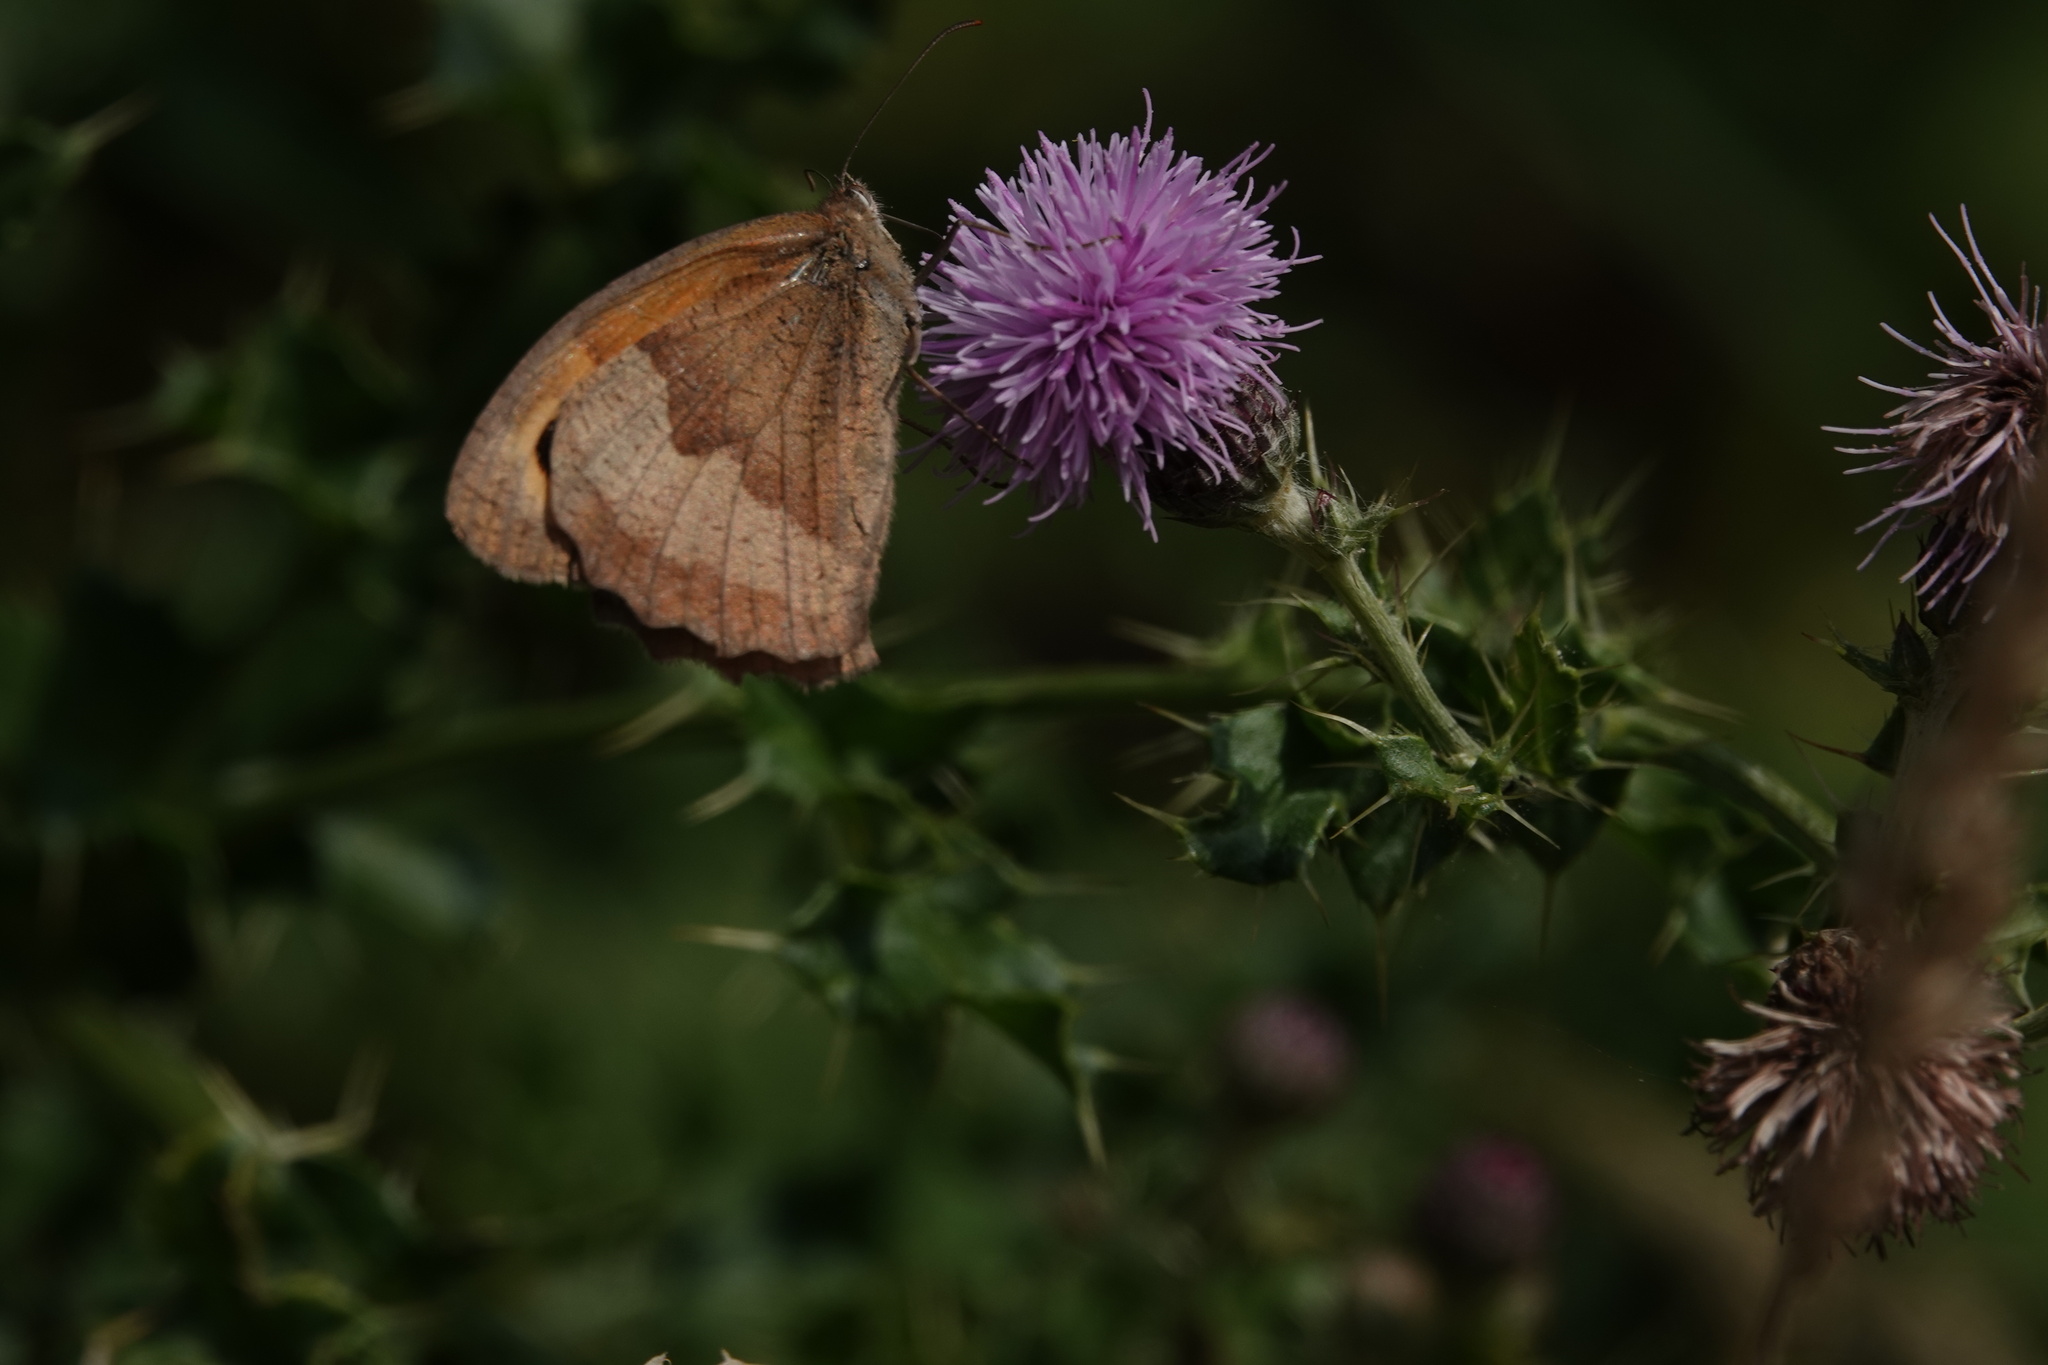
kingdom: Animalia
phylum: Arthropoda
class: Insecta
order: Lepidoptera
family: Nymphalidae
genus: Maniola
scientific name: Maniola jurtina
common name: Meadow brown
